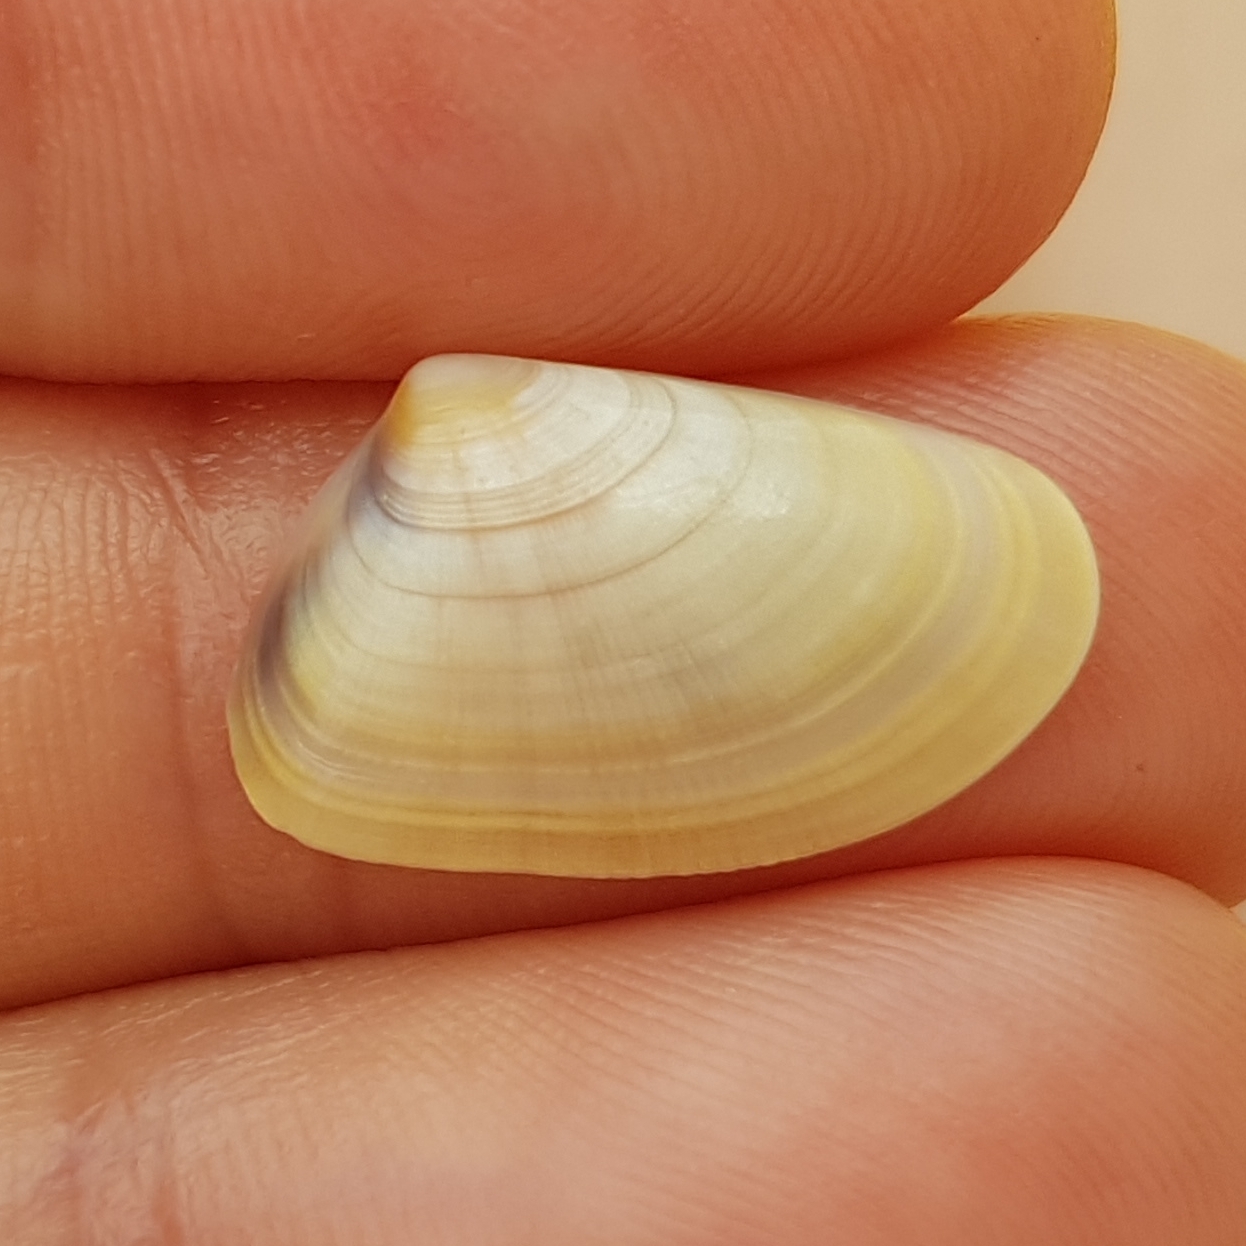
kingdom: Animalia
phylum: Mollusca
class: Bivalvia
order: Cardiida
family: Donacidae
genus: Donax
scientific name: Donax trunculus
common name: Truncate donax
